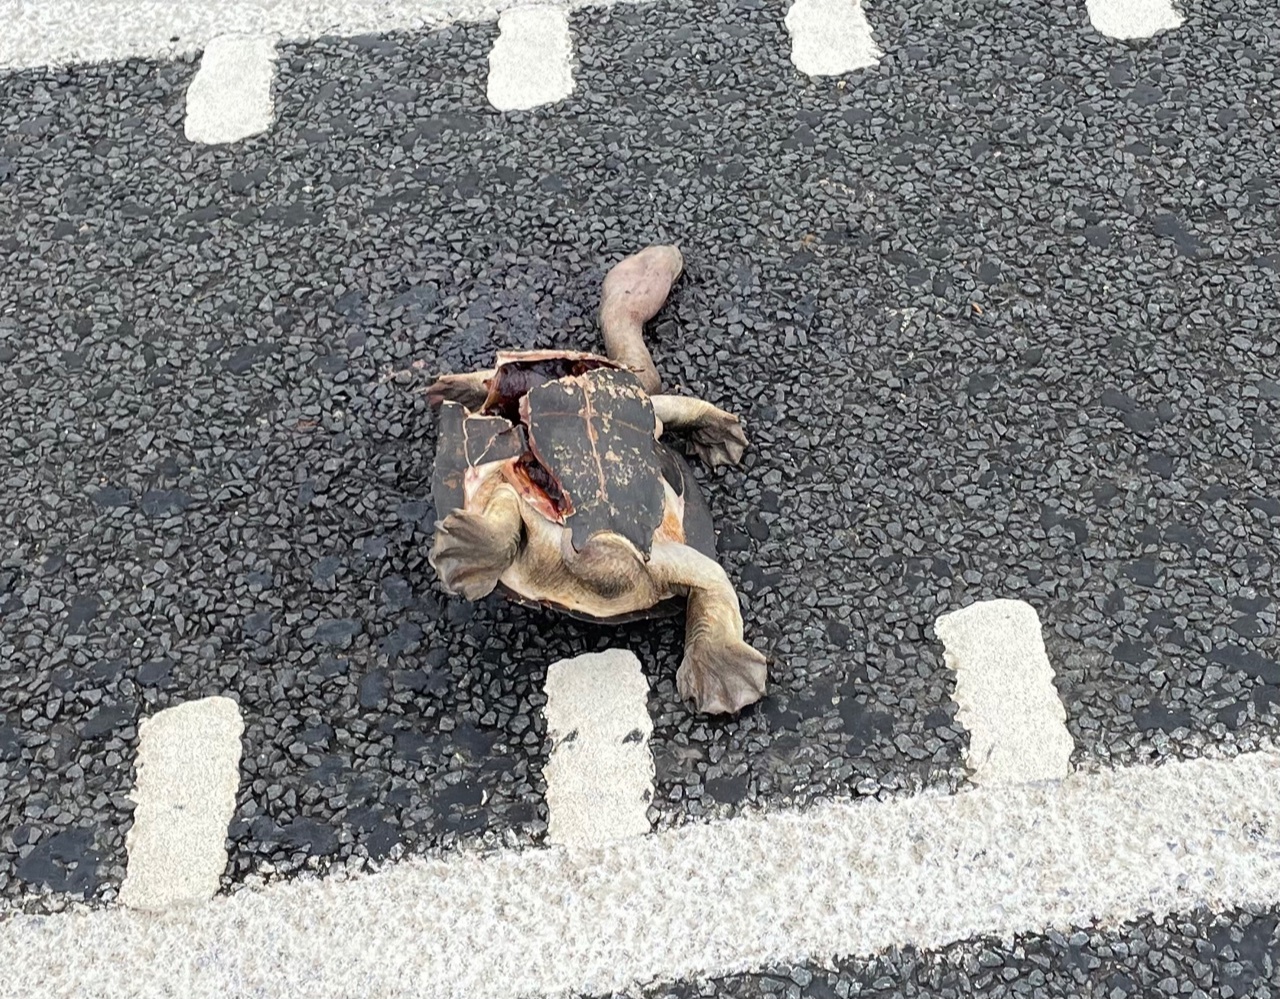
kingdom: Animalia
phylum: Chordata
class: Testudines
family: Chelidae
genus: Chelodina
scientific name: Chelodina expansa
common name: Giant snakeneck turtle
